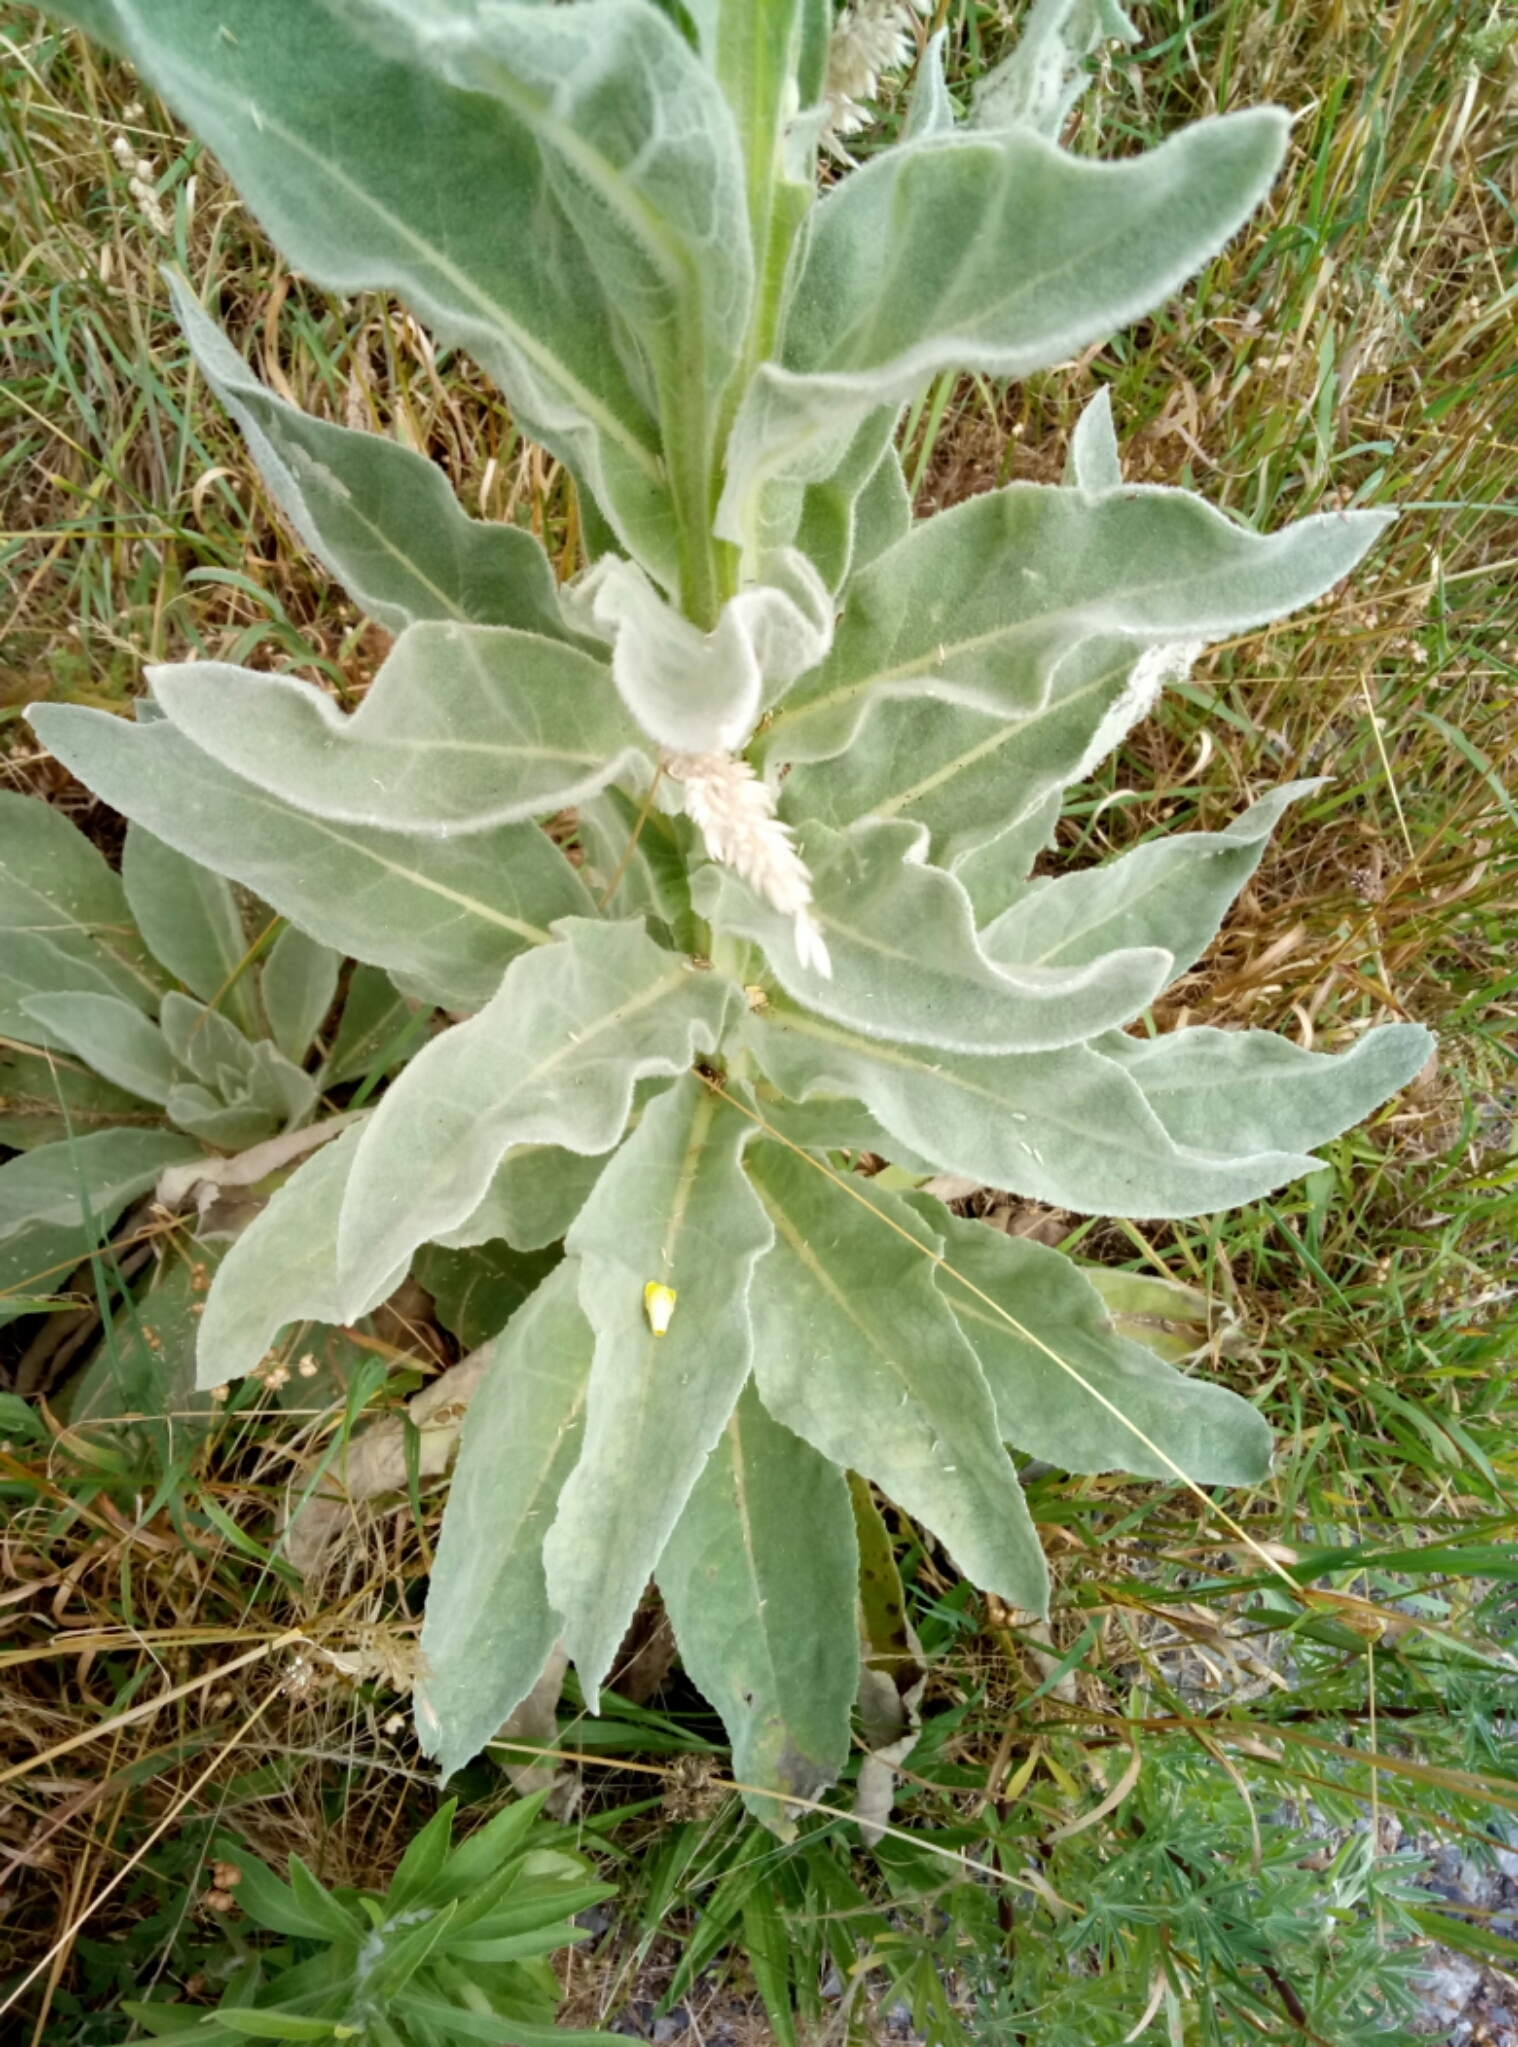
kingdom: Plantae
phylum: Tracheophyta
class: Magnoliopsida
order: Lamiales
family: Scrophulariaceae
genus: Verbascum
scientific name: Verbascum thapsus
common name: Common mullein
